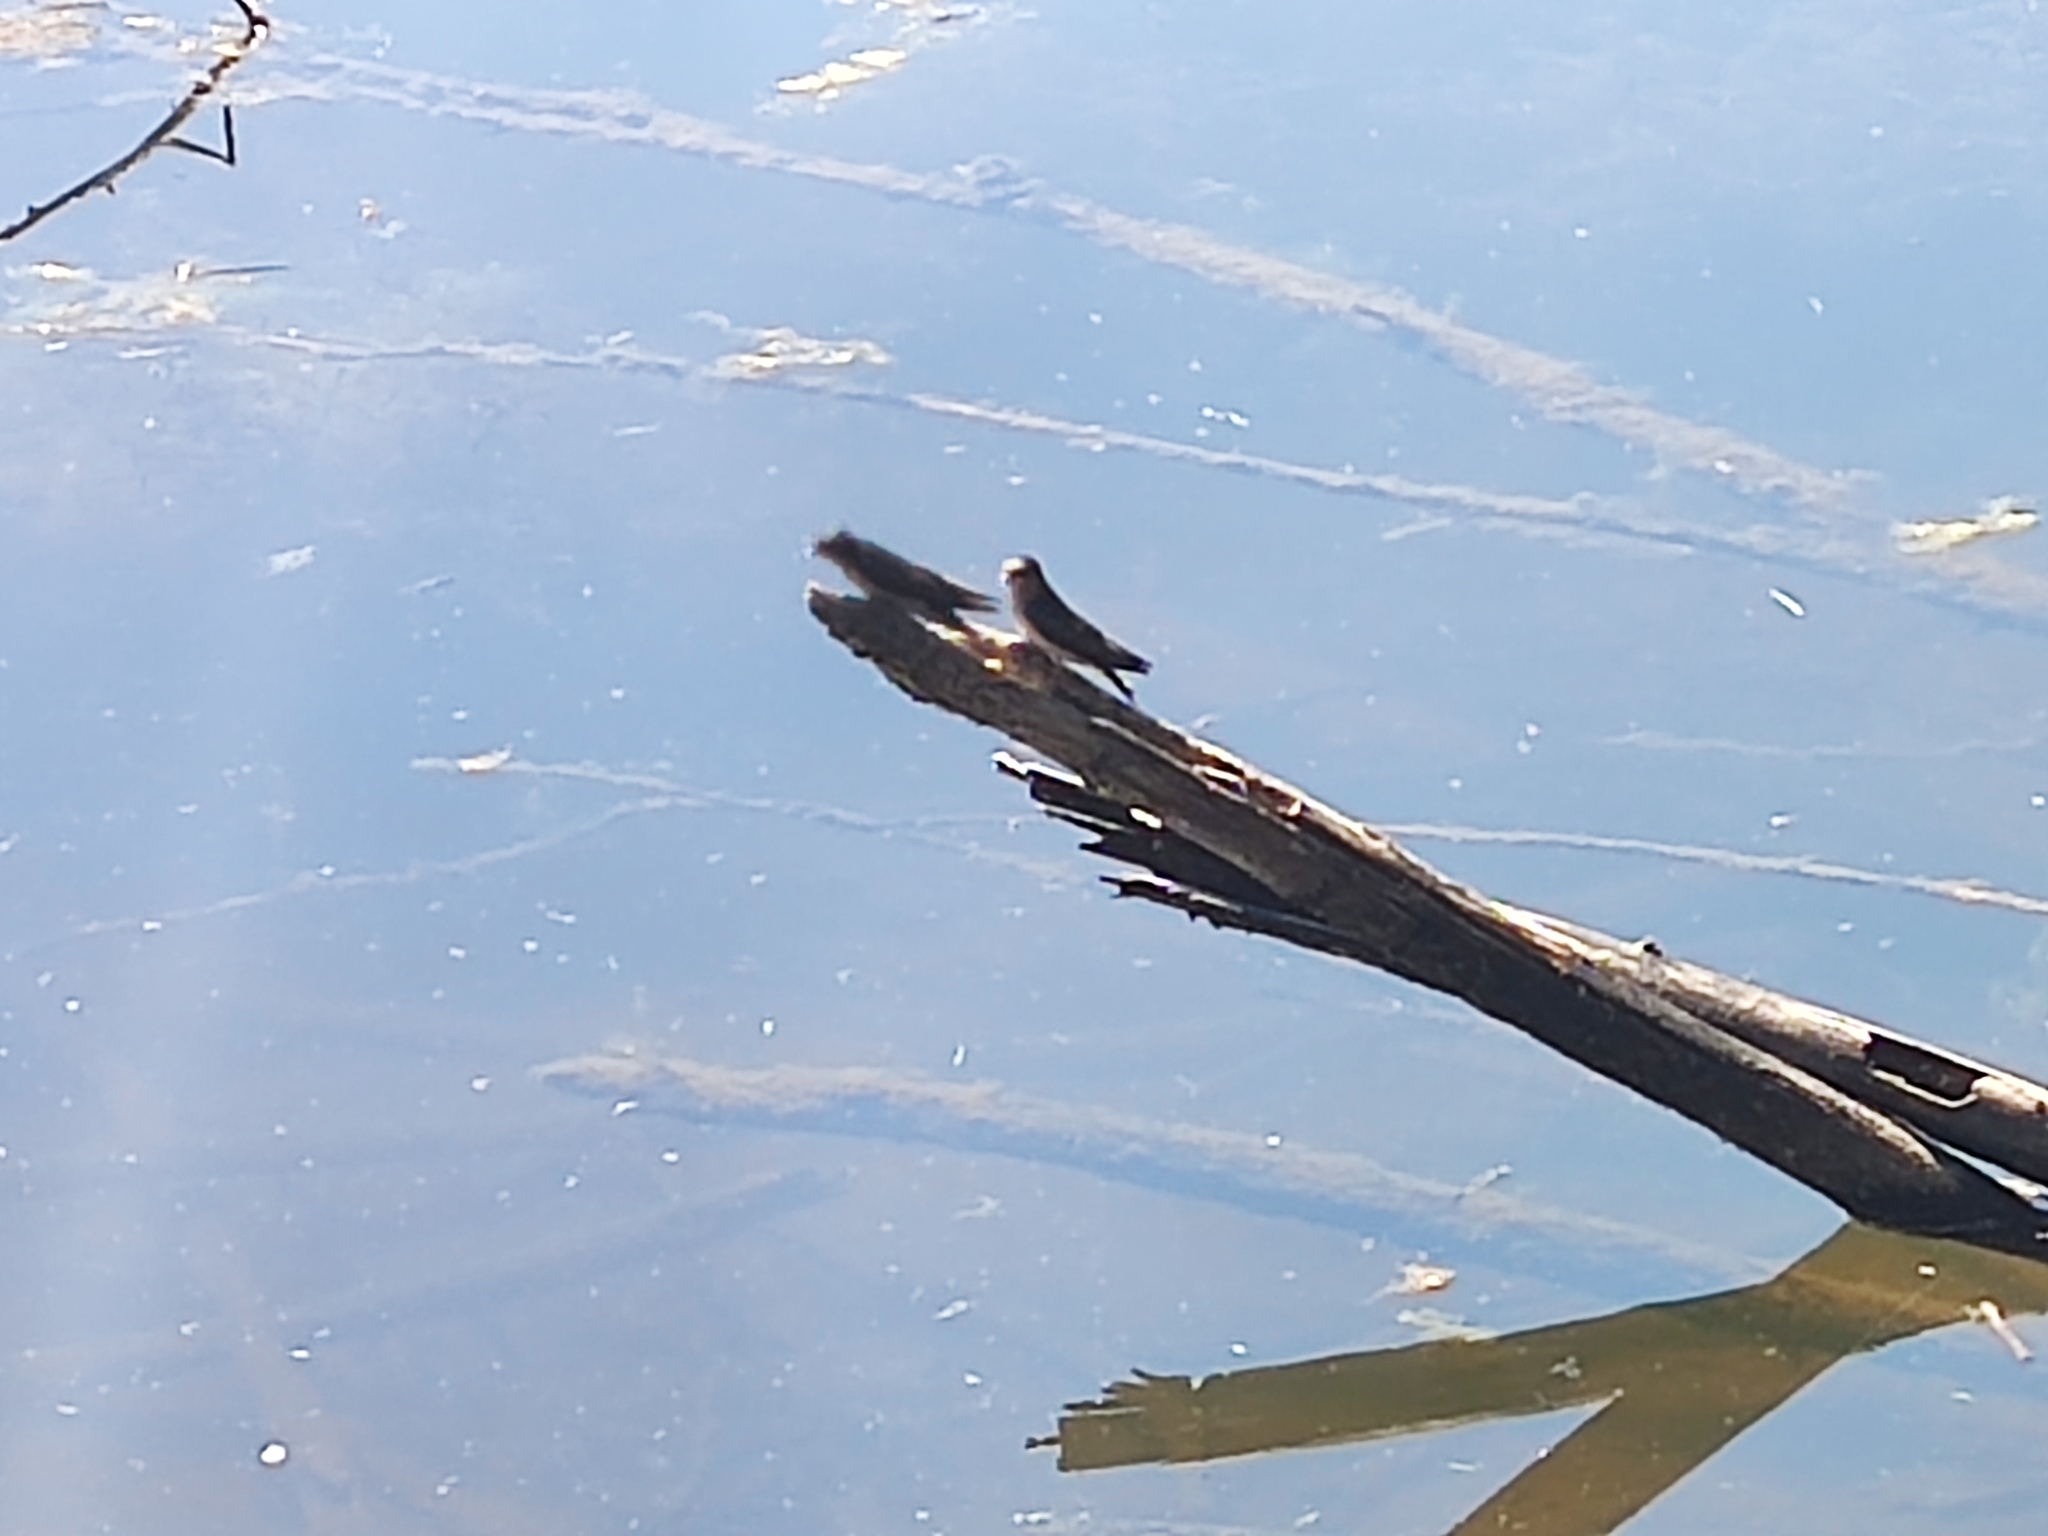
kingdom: Animalia
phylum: Chordata
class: Aves
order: Passeriformes
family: Hirundinidae
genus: Hirundo
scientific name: Hirundo neoxena
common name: Welcome swallow
